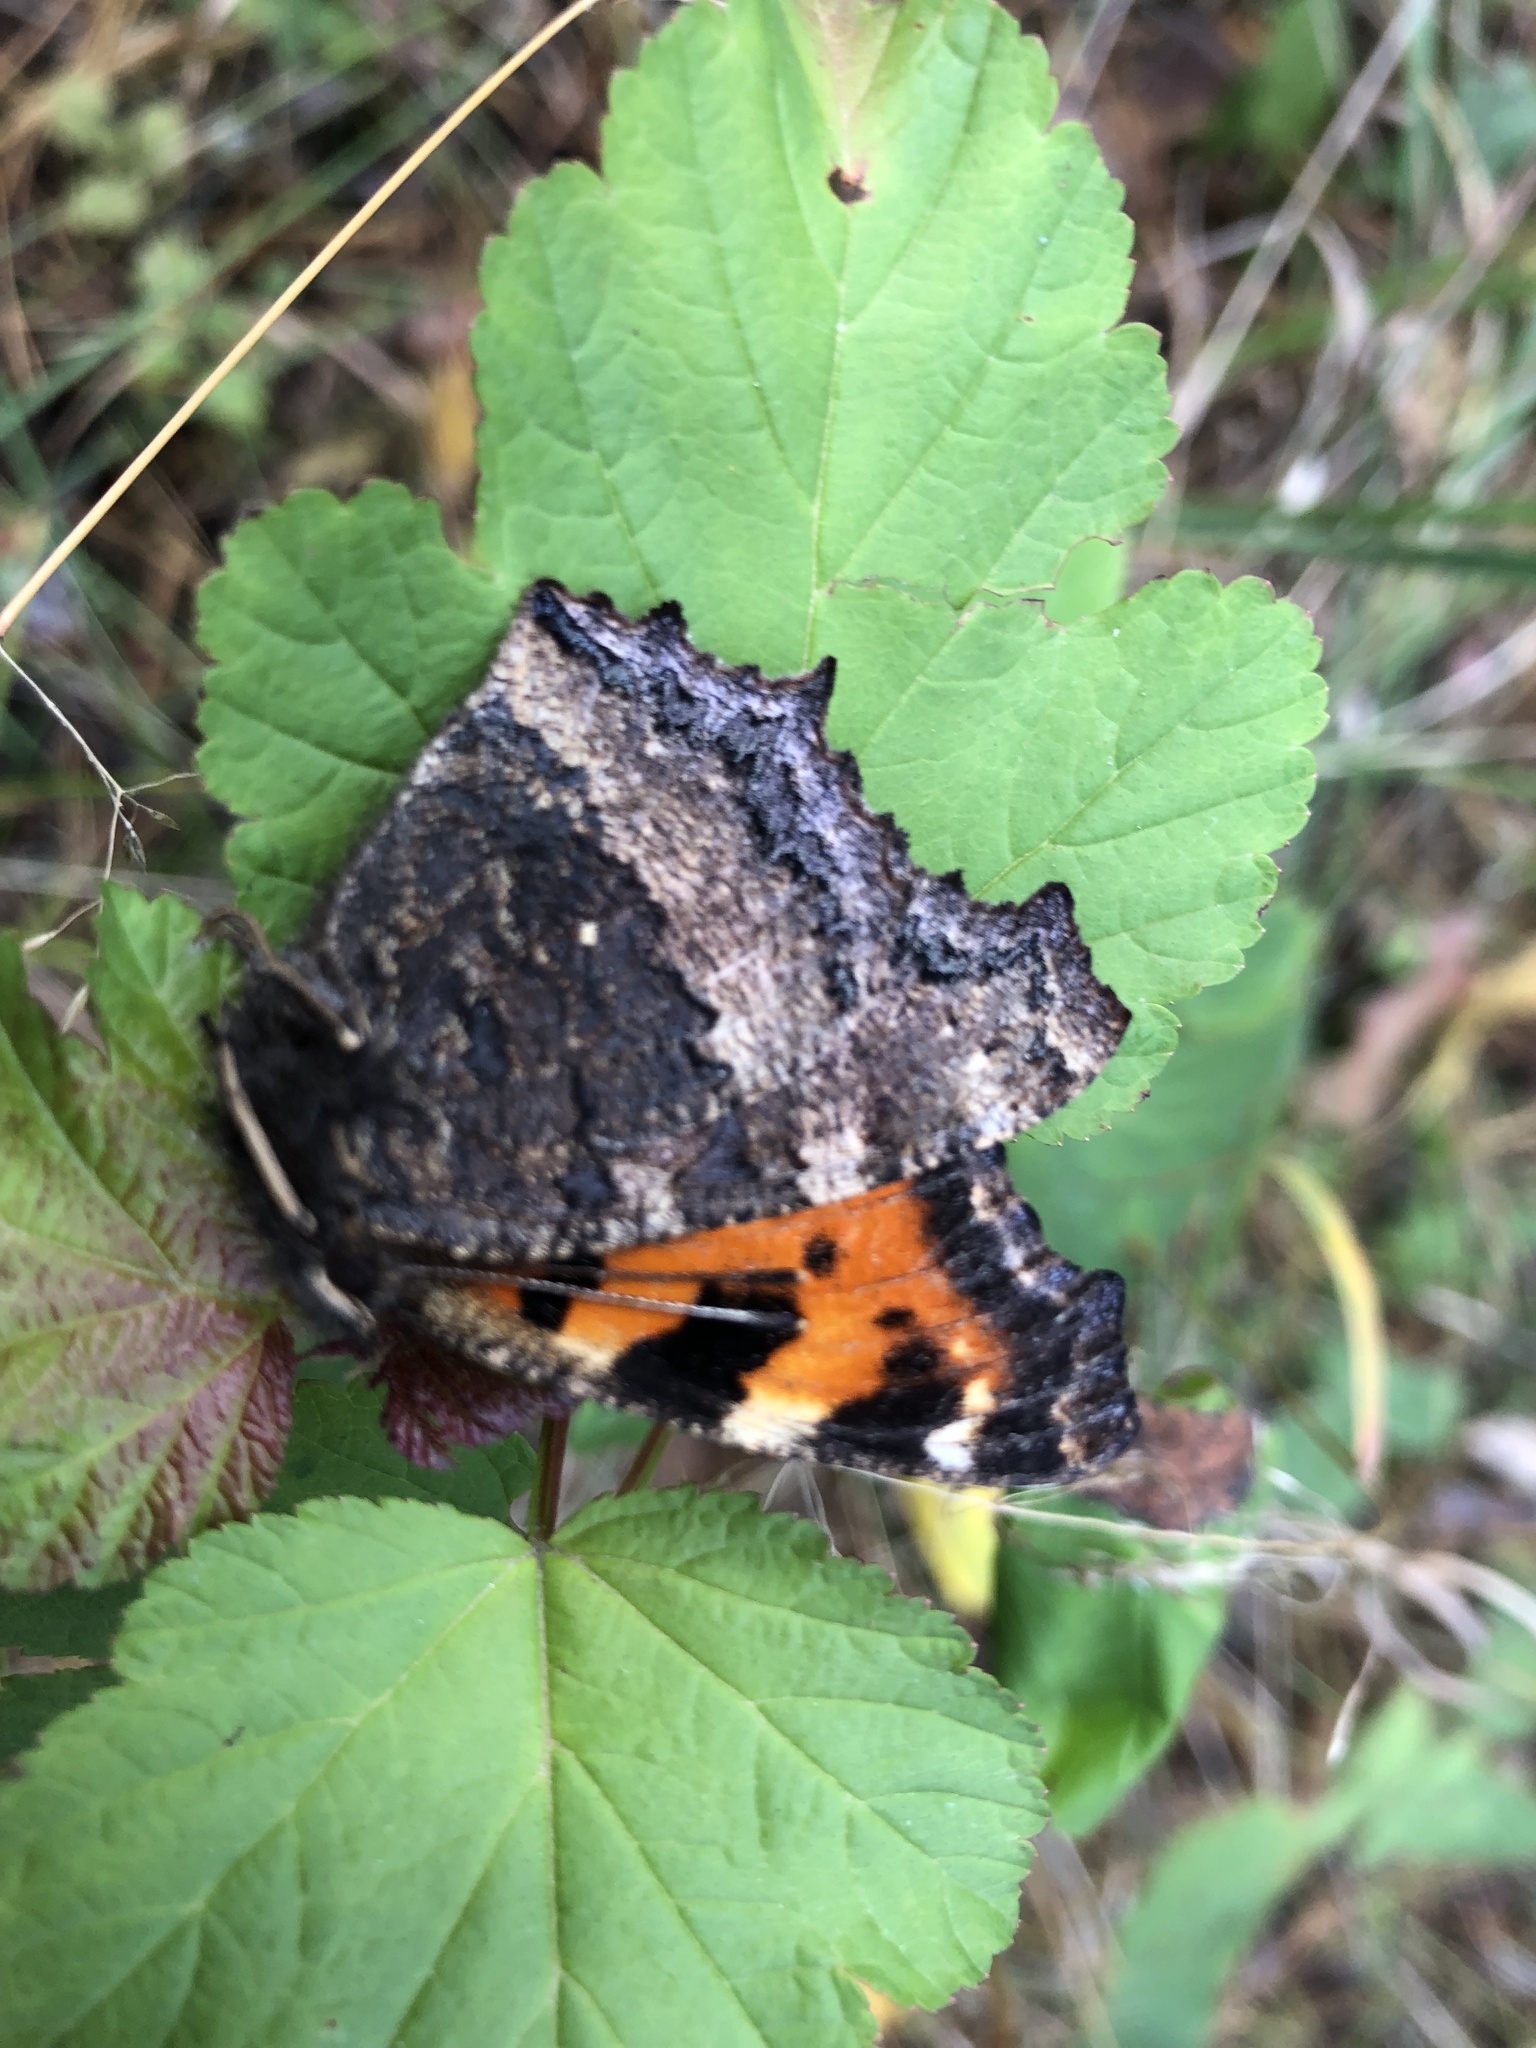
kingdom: Animalia
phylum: Arthropoda
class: Insecta
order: Lepidoptera
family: Nymphalidae
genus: Nymphalis
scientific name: Nymphalis xanthomelas
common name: Scarce tortoiseshell
